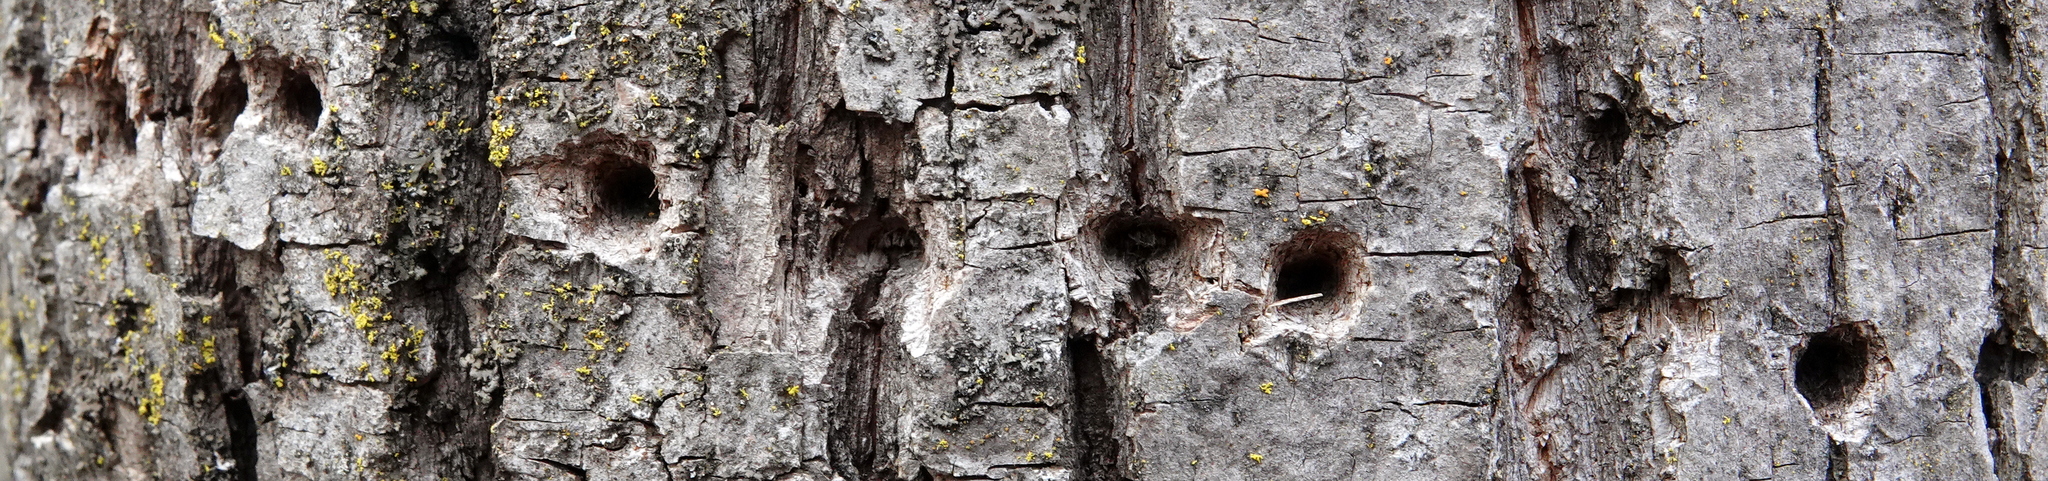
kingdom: Animalia
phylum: Arthropoda
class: Insecta
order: Coleoptera
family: Buprestidae
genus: Agrilus
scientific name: Agrilus planipennis
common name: Emerald ash borer
